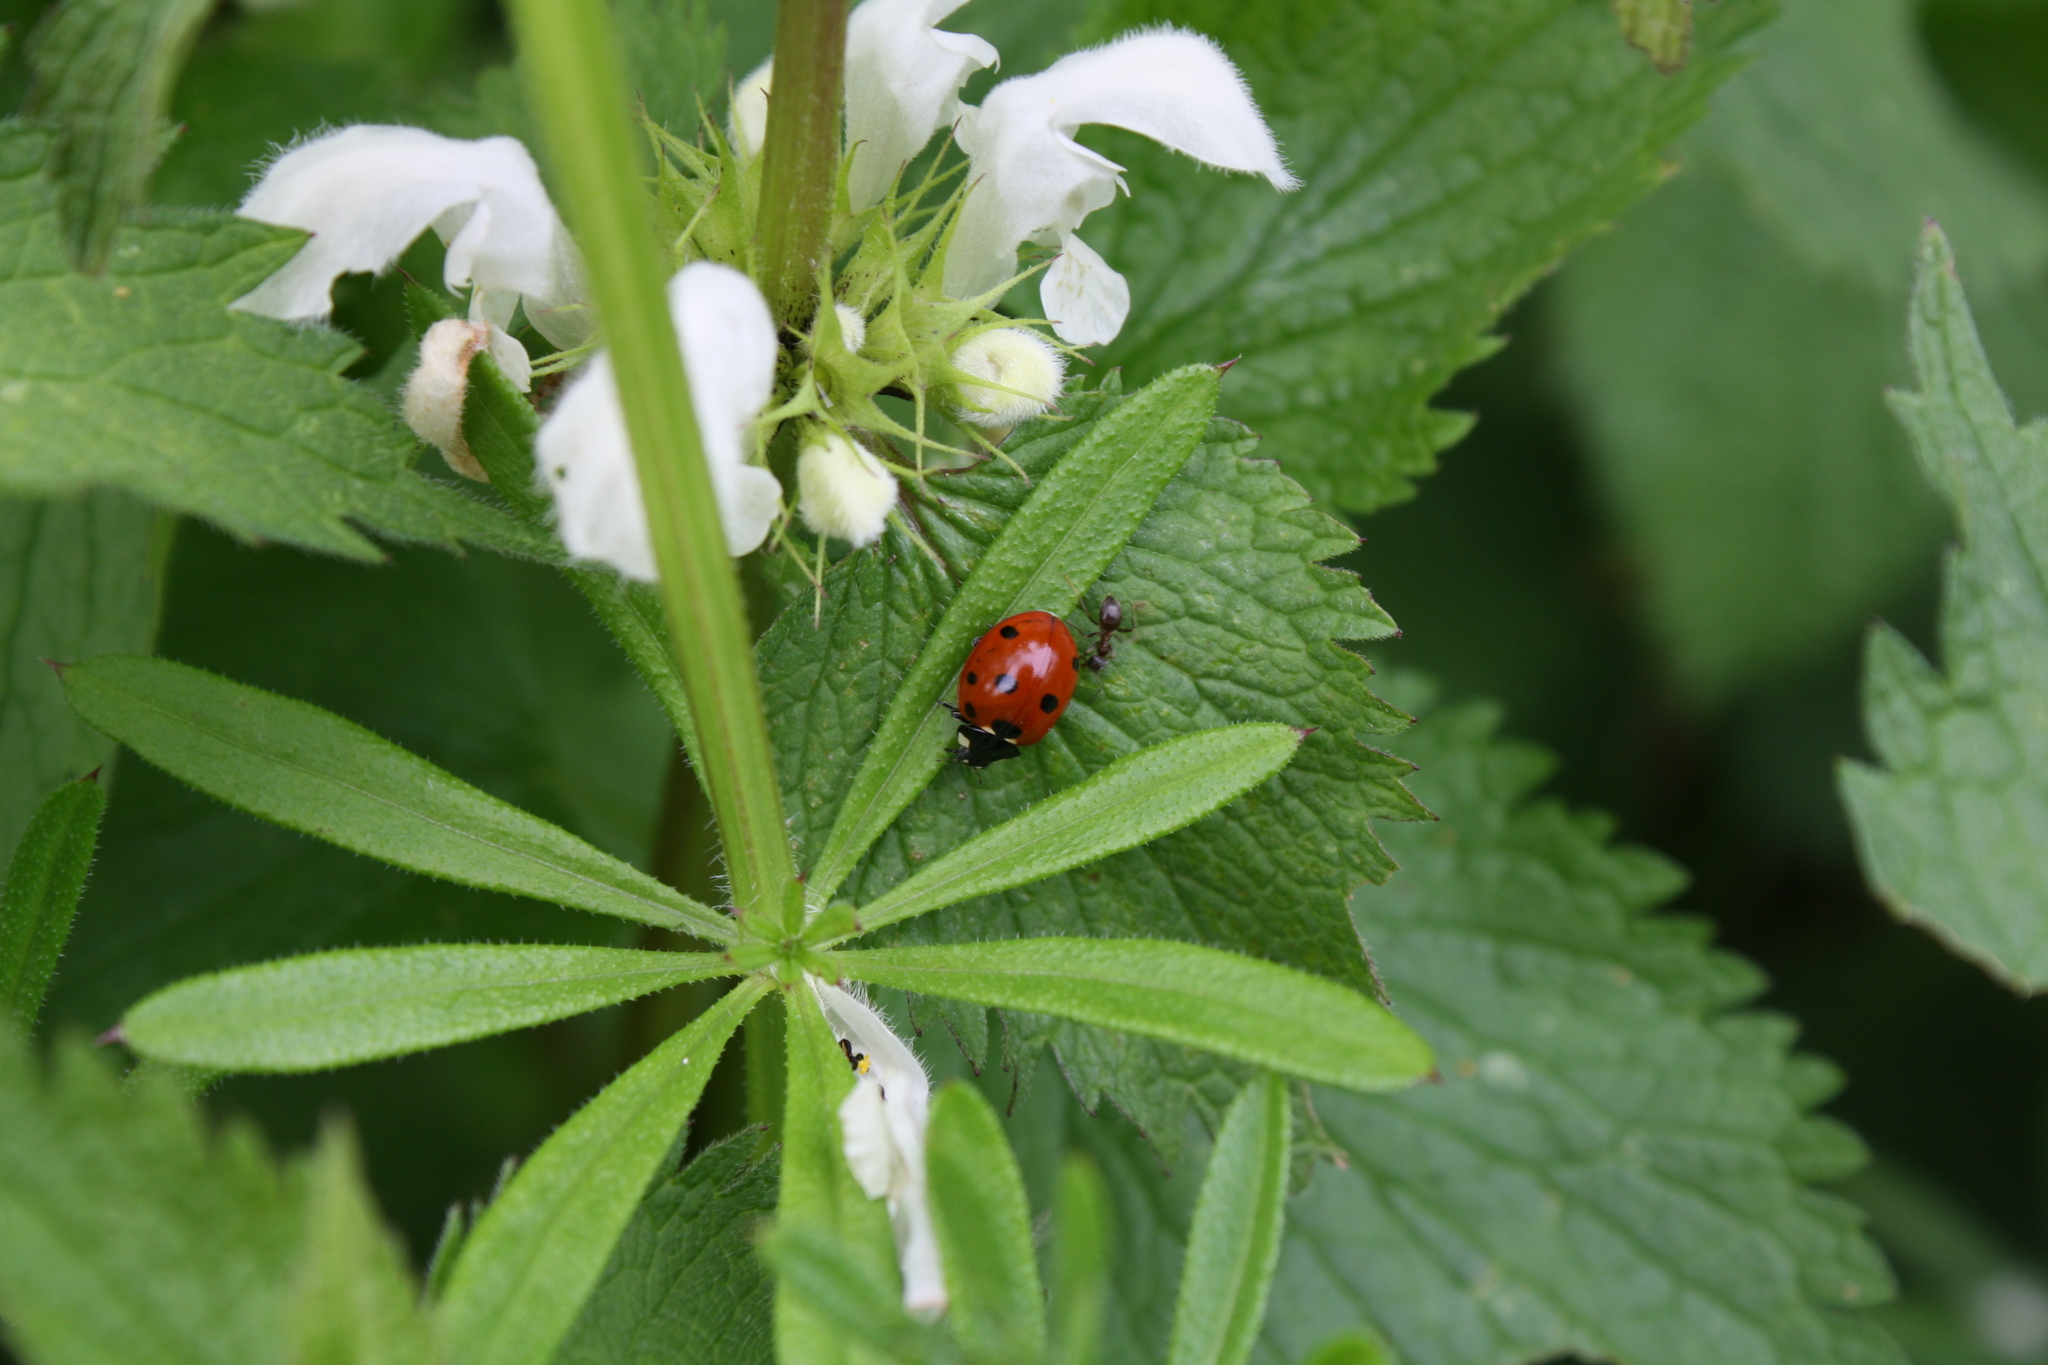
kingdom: Animalia
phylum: Arthropoda
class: Insecta
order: Coleoptera
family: Coccinellidae
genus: Coccinella
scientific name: Coccinella septempunctata
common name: Sevenspotted lady beetle
